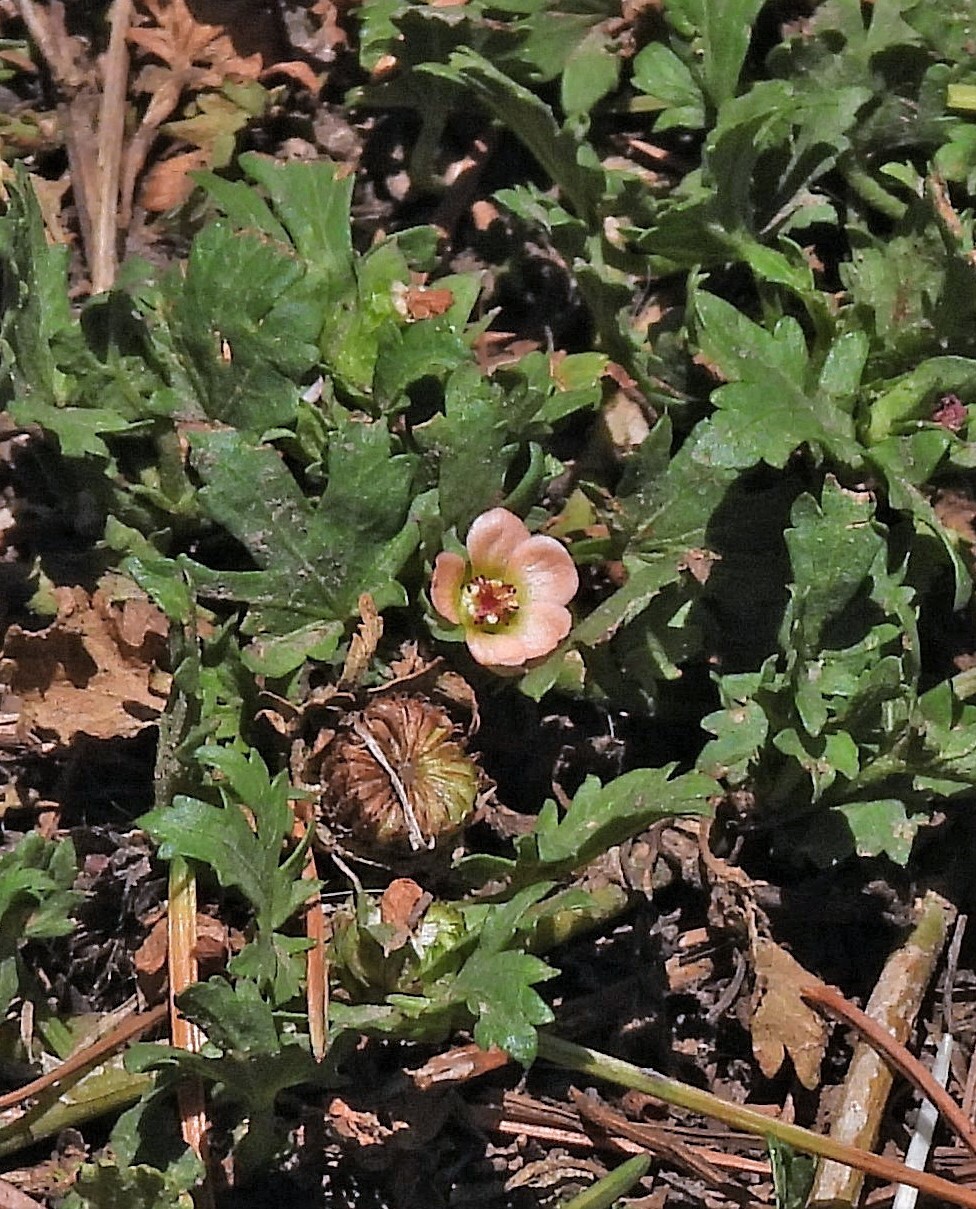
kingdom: Plantae
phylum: Tracheophyta
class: Magnoliopsida
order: Malvales
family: Malvaceae
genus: Modiola
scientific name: Modiola caroliniana
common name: Carolina bristlemallow
